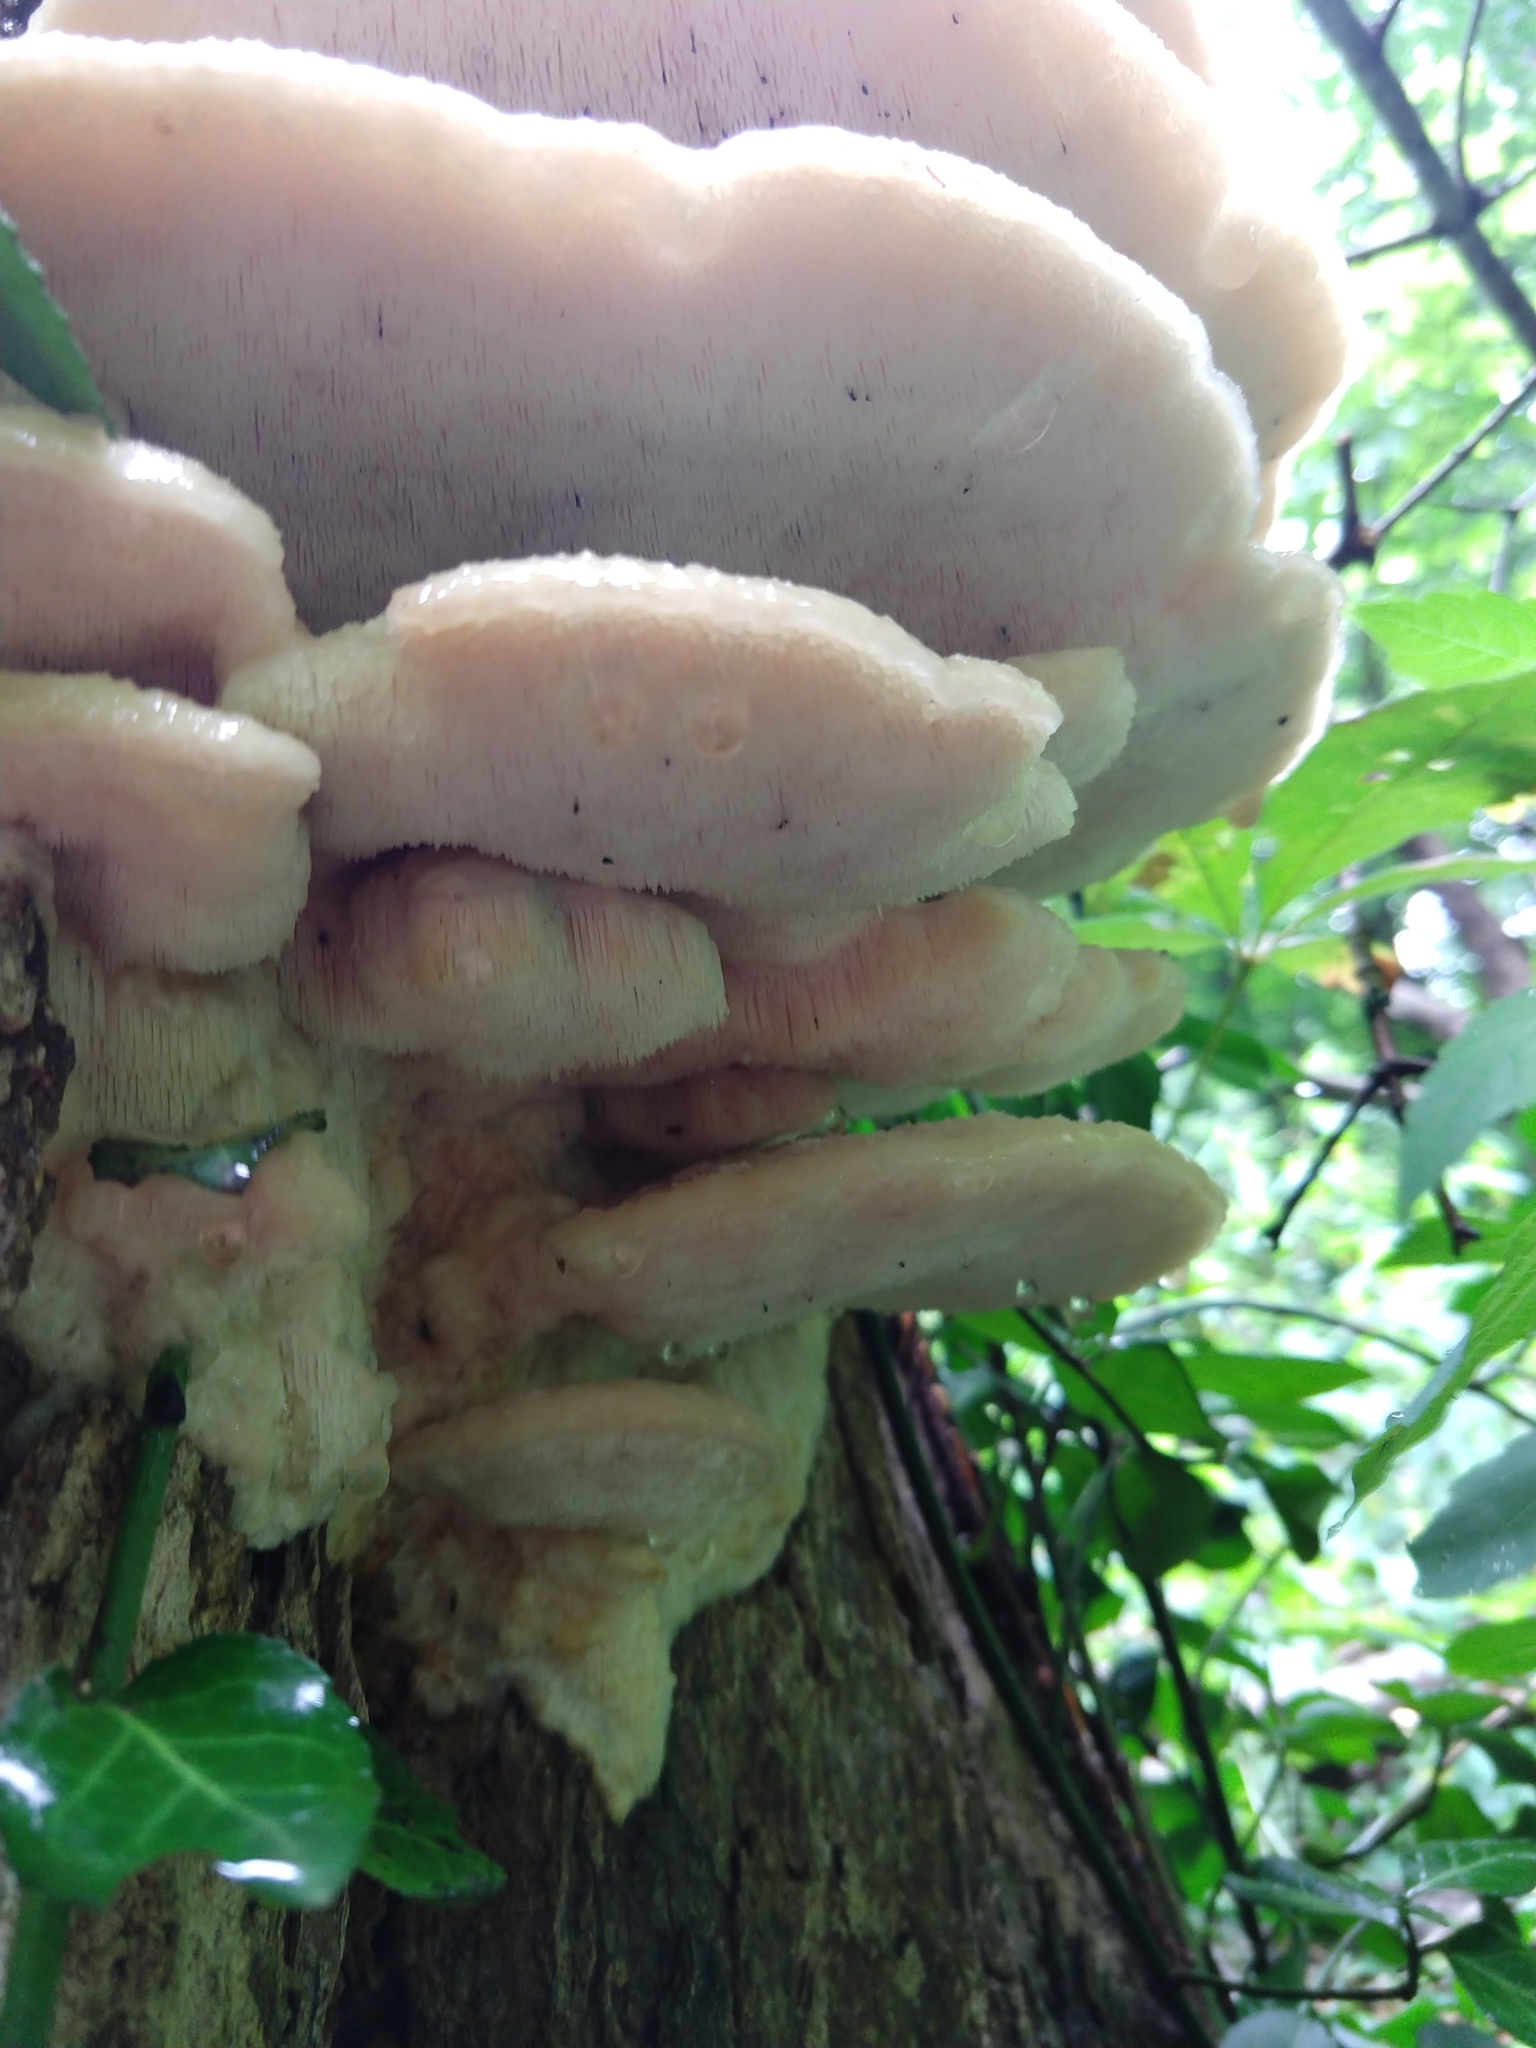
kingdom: Fungi
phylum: Basidiomycota
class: Agaricomycetes
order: Polyporales
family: Meruliaceae
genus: Climacodon
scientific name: Climacodon septentrionalis
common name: Northern tooth
